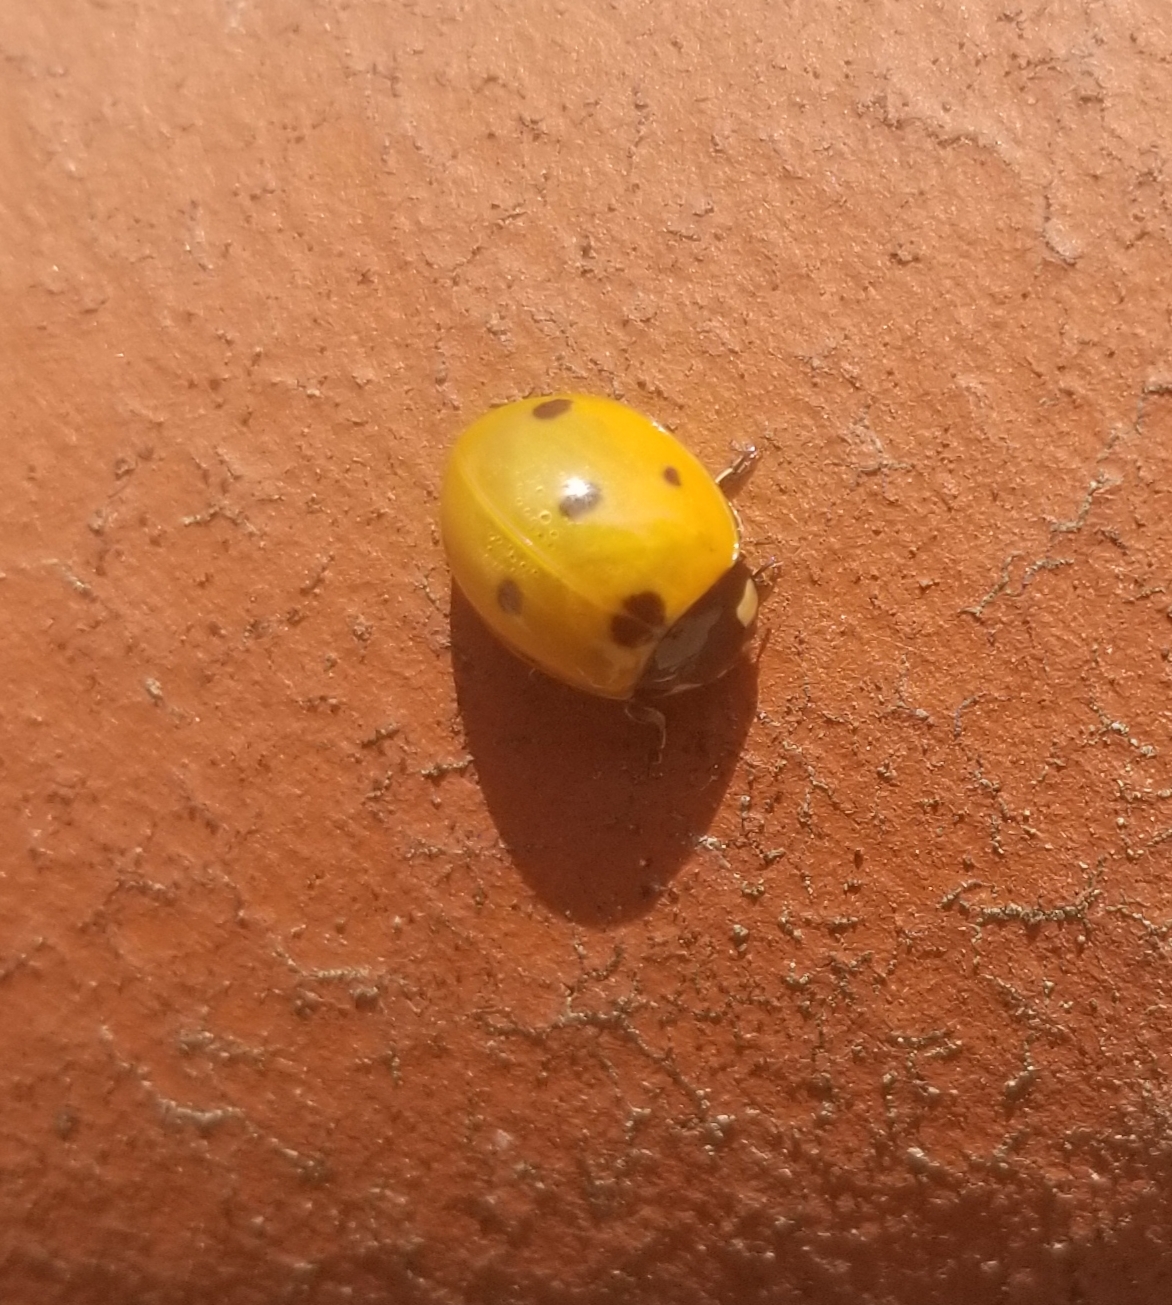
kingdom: Animalia
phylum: Arthropoda
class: Insecta
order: Coleoptera
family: Coccinellidae
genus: Coccinella
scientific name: Coccinella septempunctata
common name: Sevenspotted lady beetle
